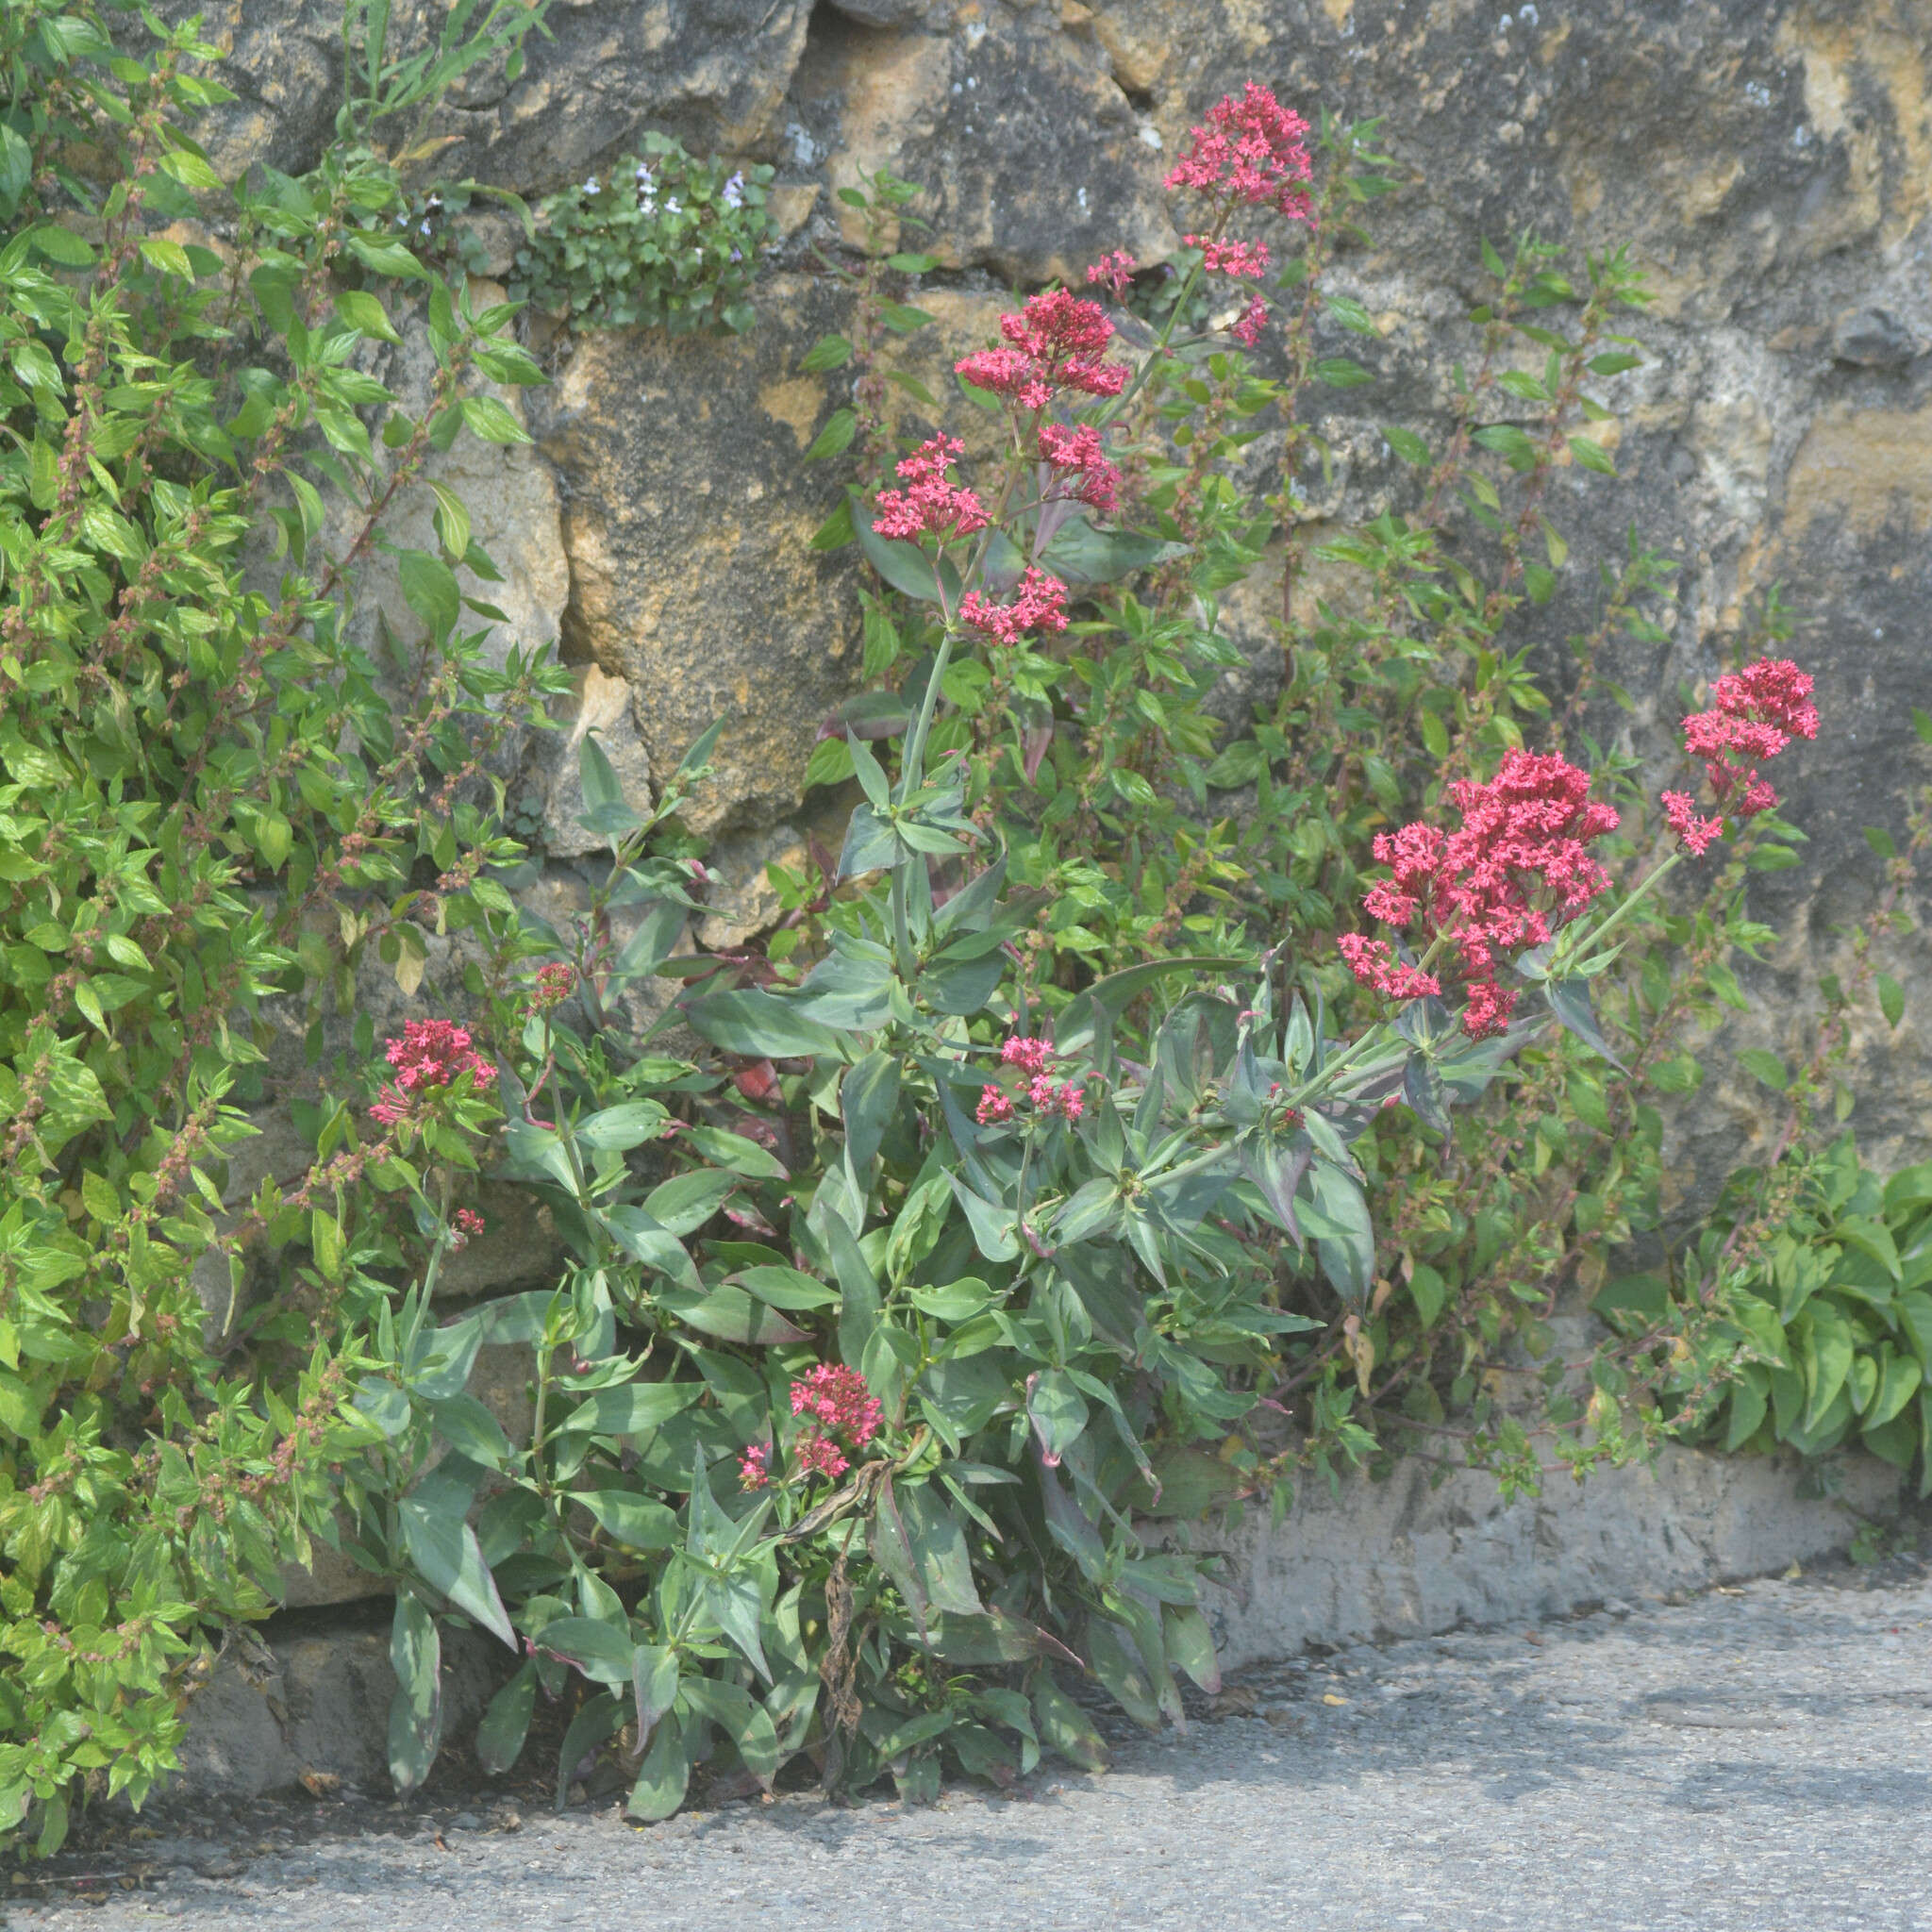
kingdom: Plantae
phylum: Tracheophyta
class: Magnoliopsida
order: Dipsacales
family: Caprifoliaceae
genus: Centranthus
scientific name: Centranthus ruber
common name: Red valerian
